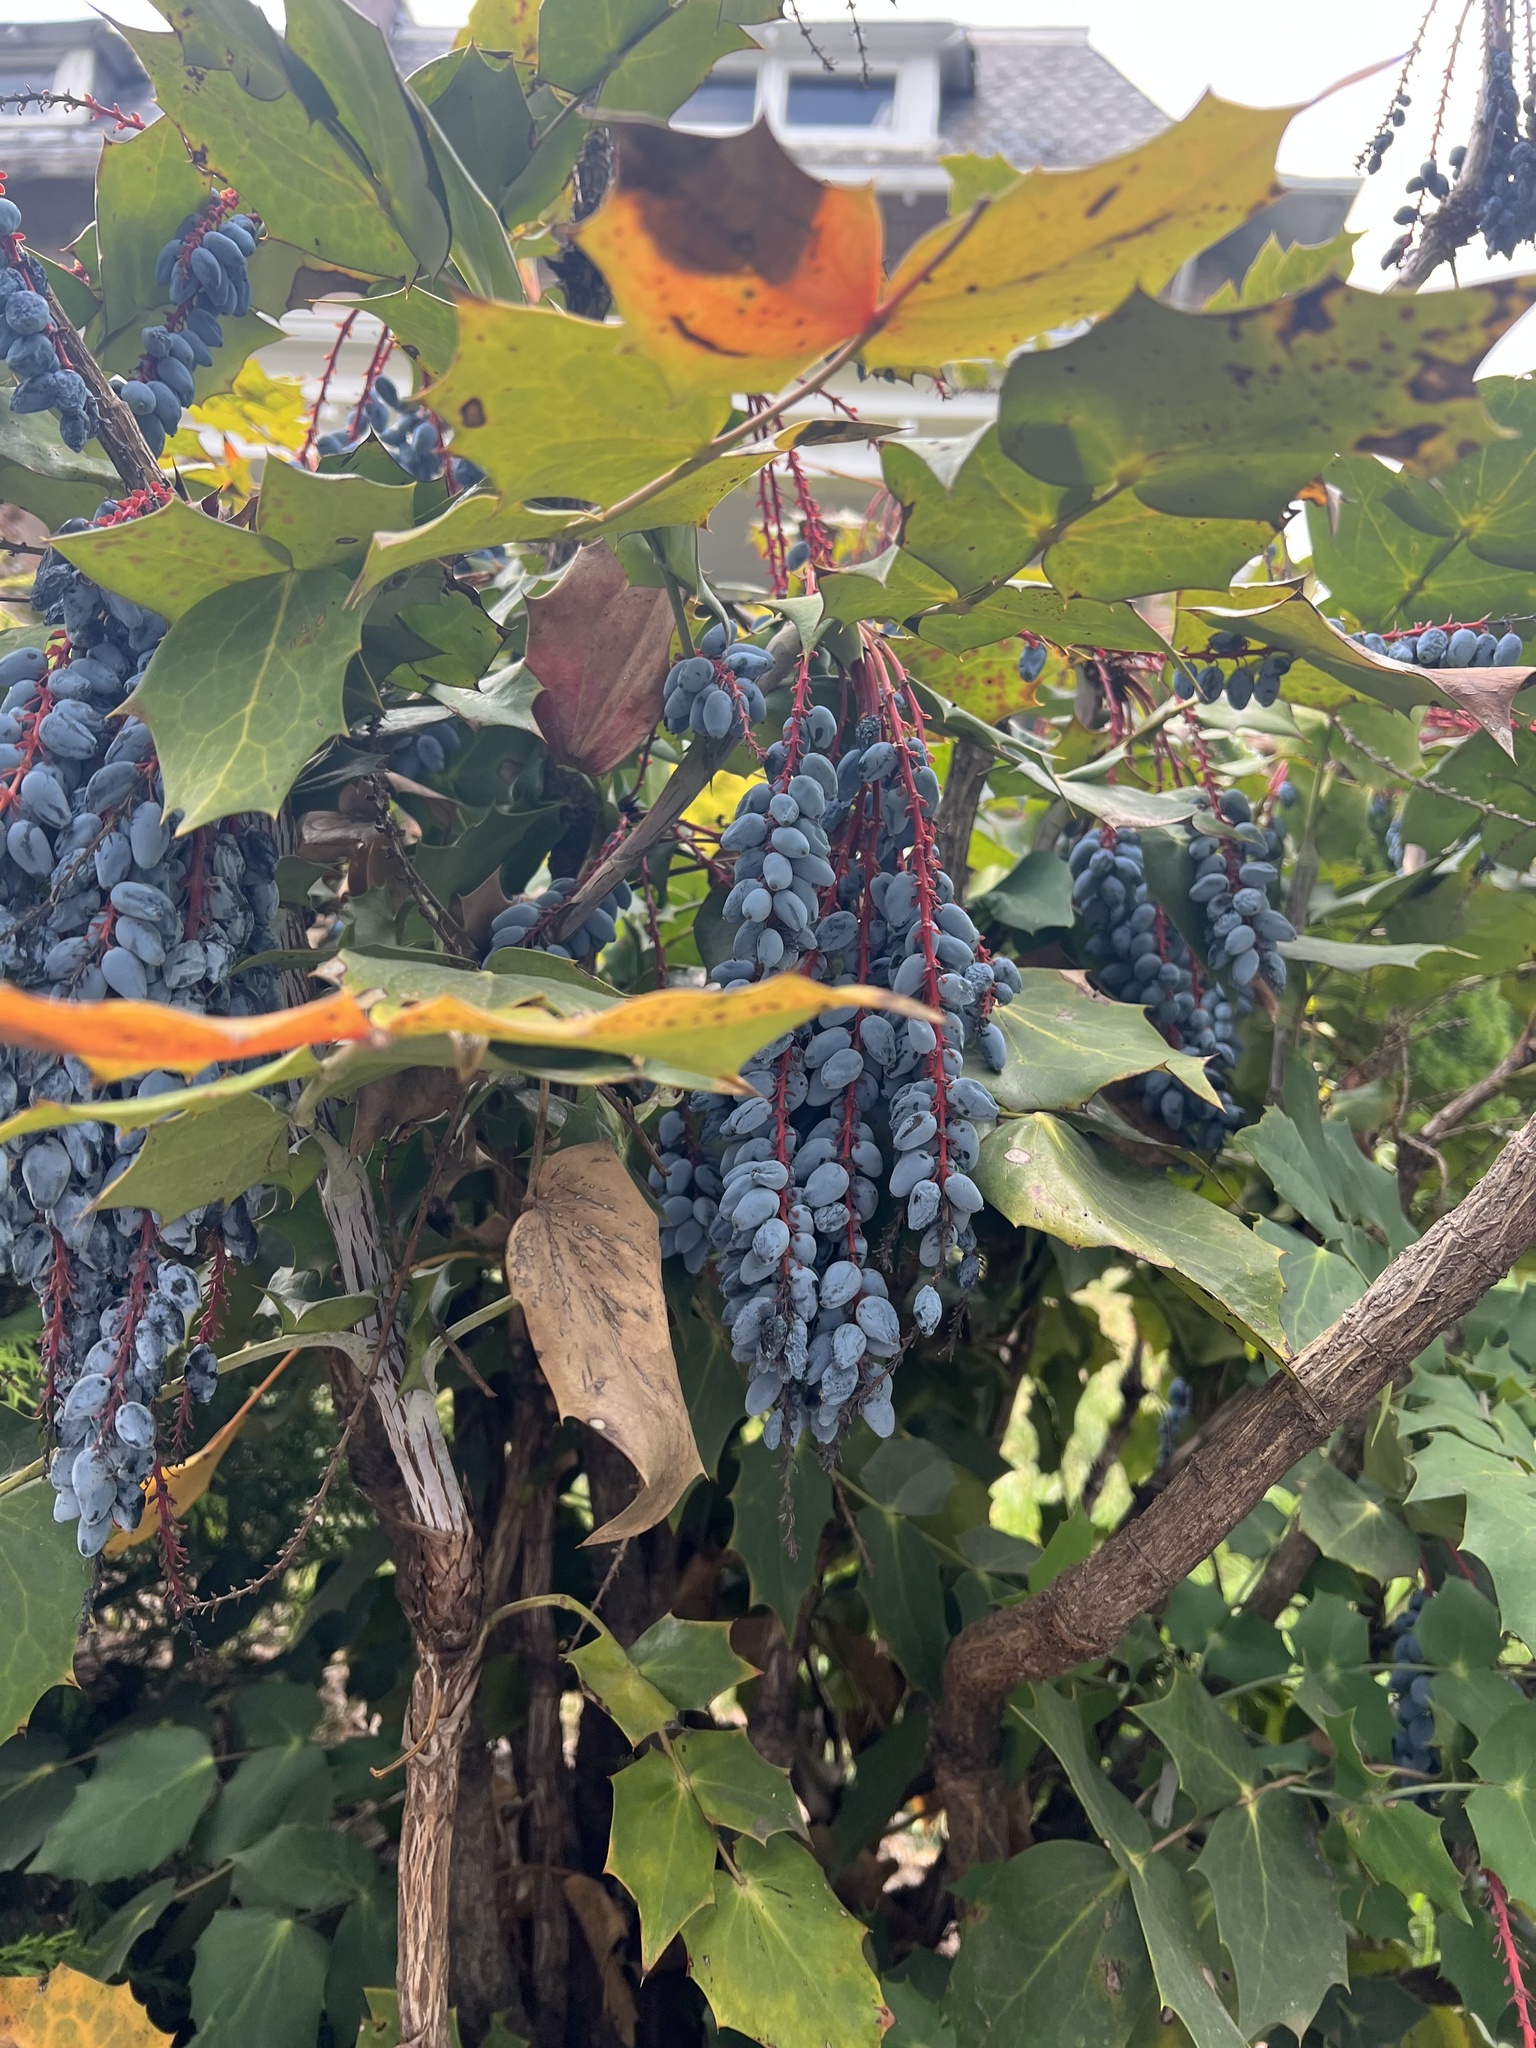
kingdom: Plantae
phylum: Tracheophyta
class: Magnoliopsida
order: Ranunculales
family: Berberidaceae
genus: Mahonia
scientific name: Mahonia bealei
